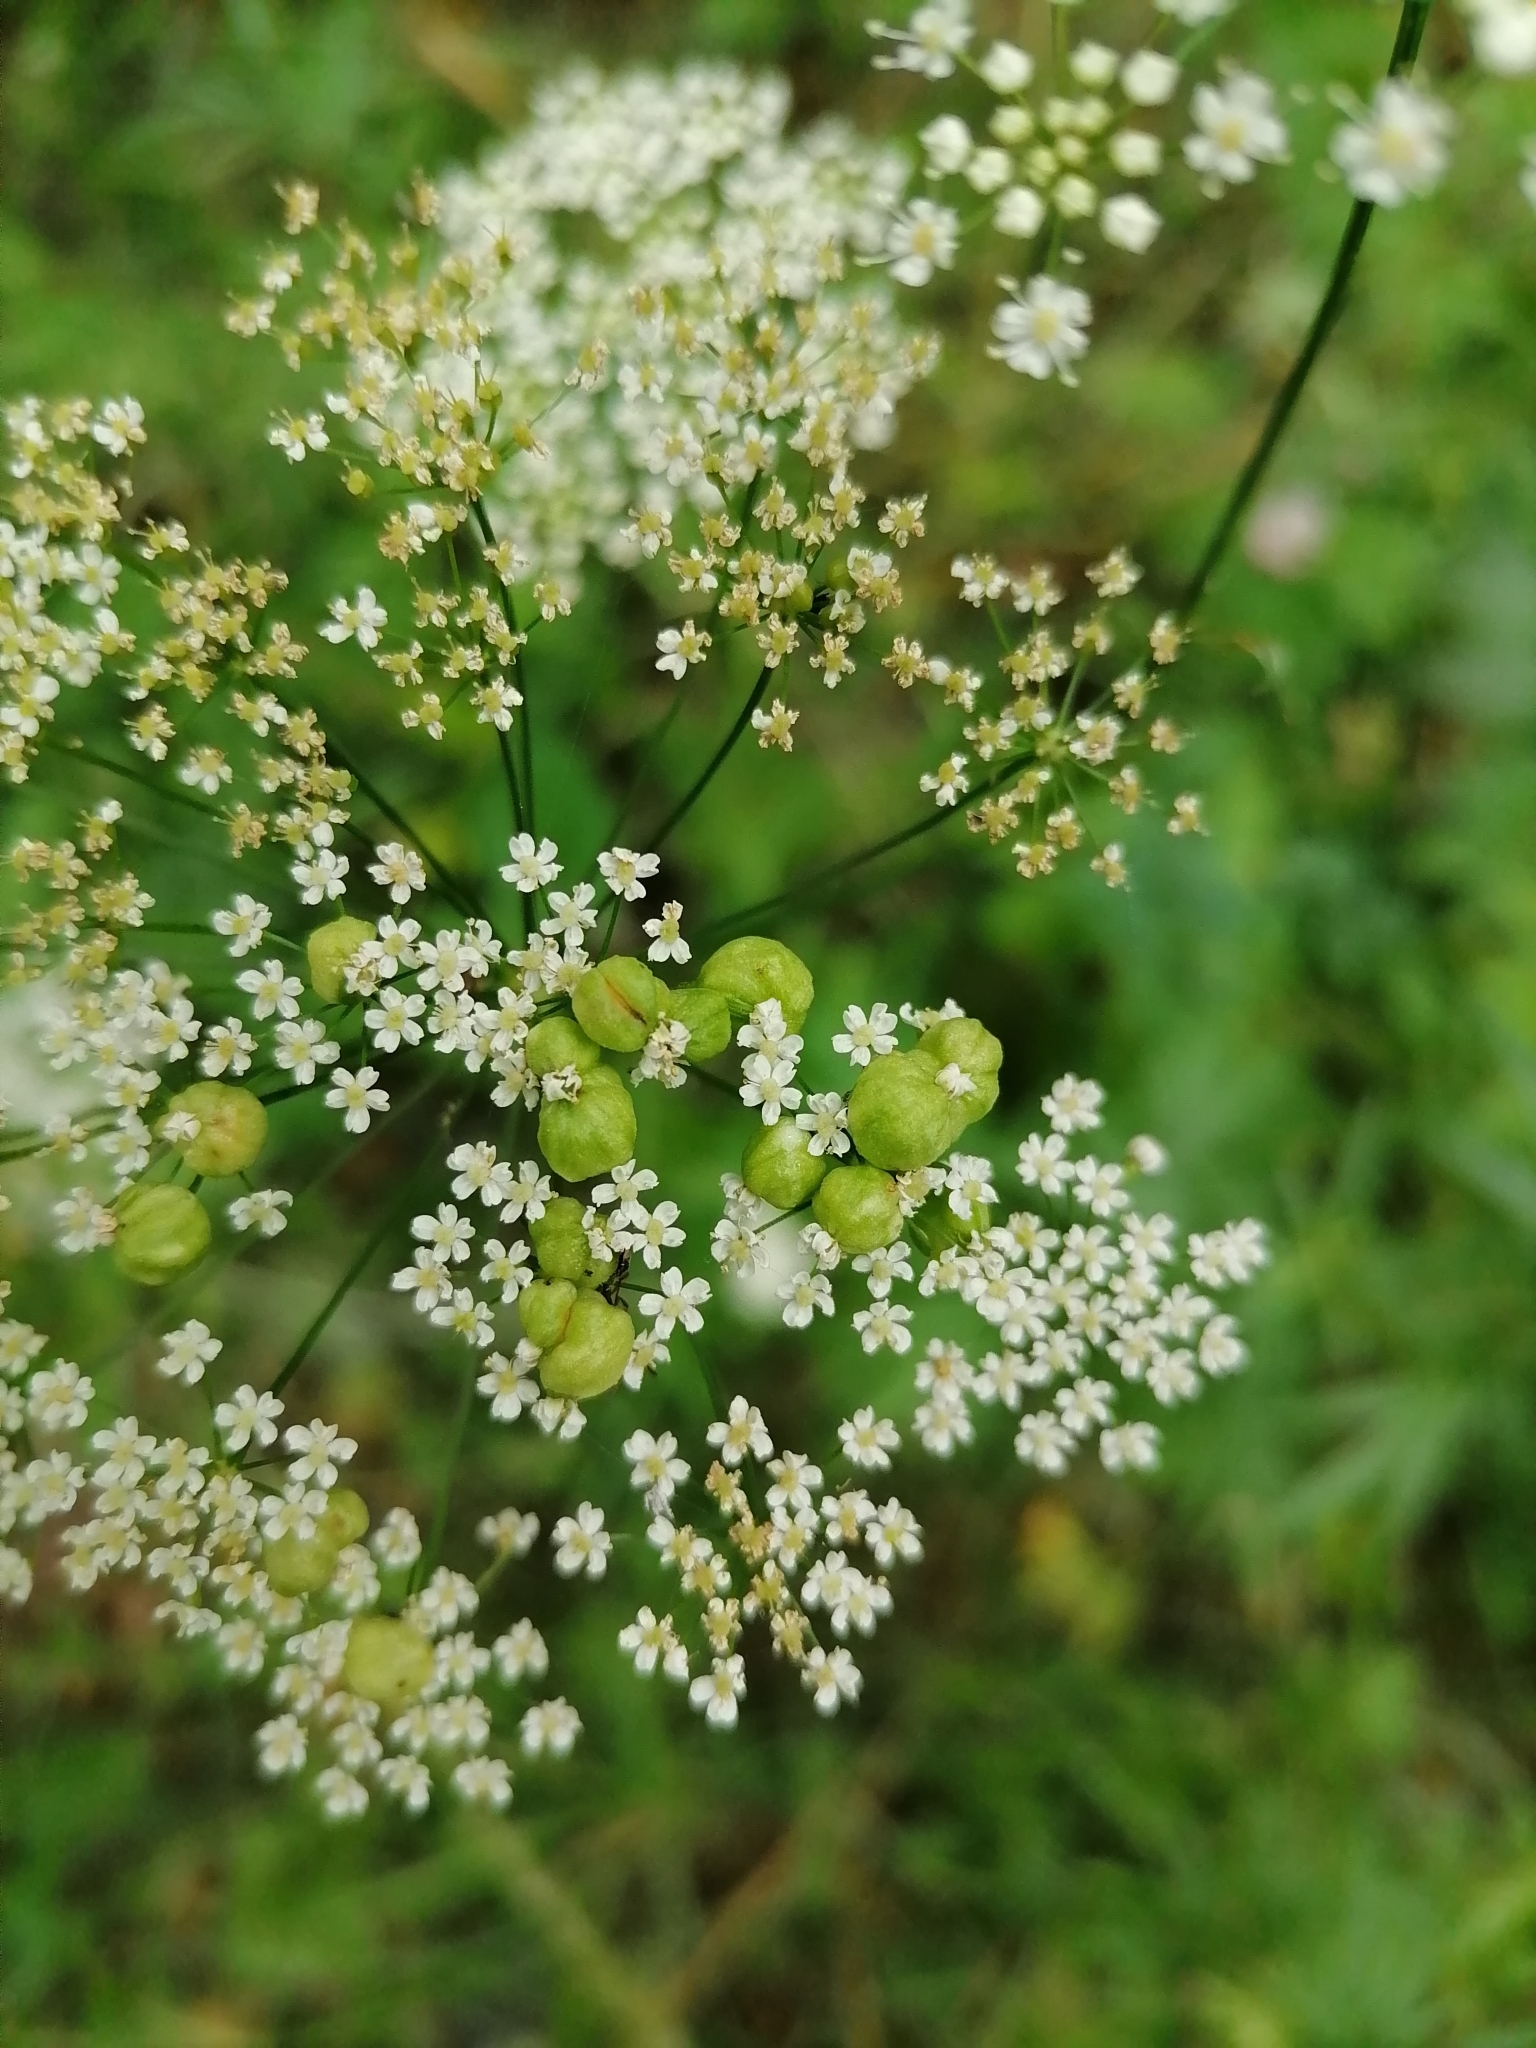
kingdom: Animalia
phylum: Arthropoda
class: Insecta
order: Diptera
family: Cecidomyiidae
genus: Kiefferia
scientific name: Kiefferia pericarpiicola
